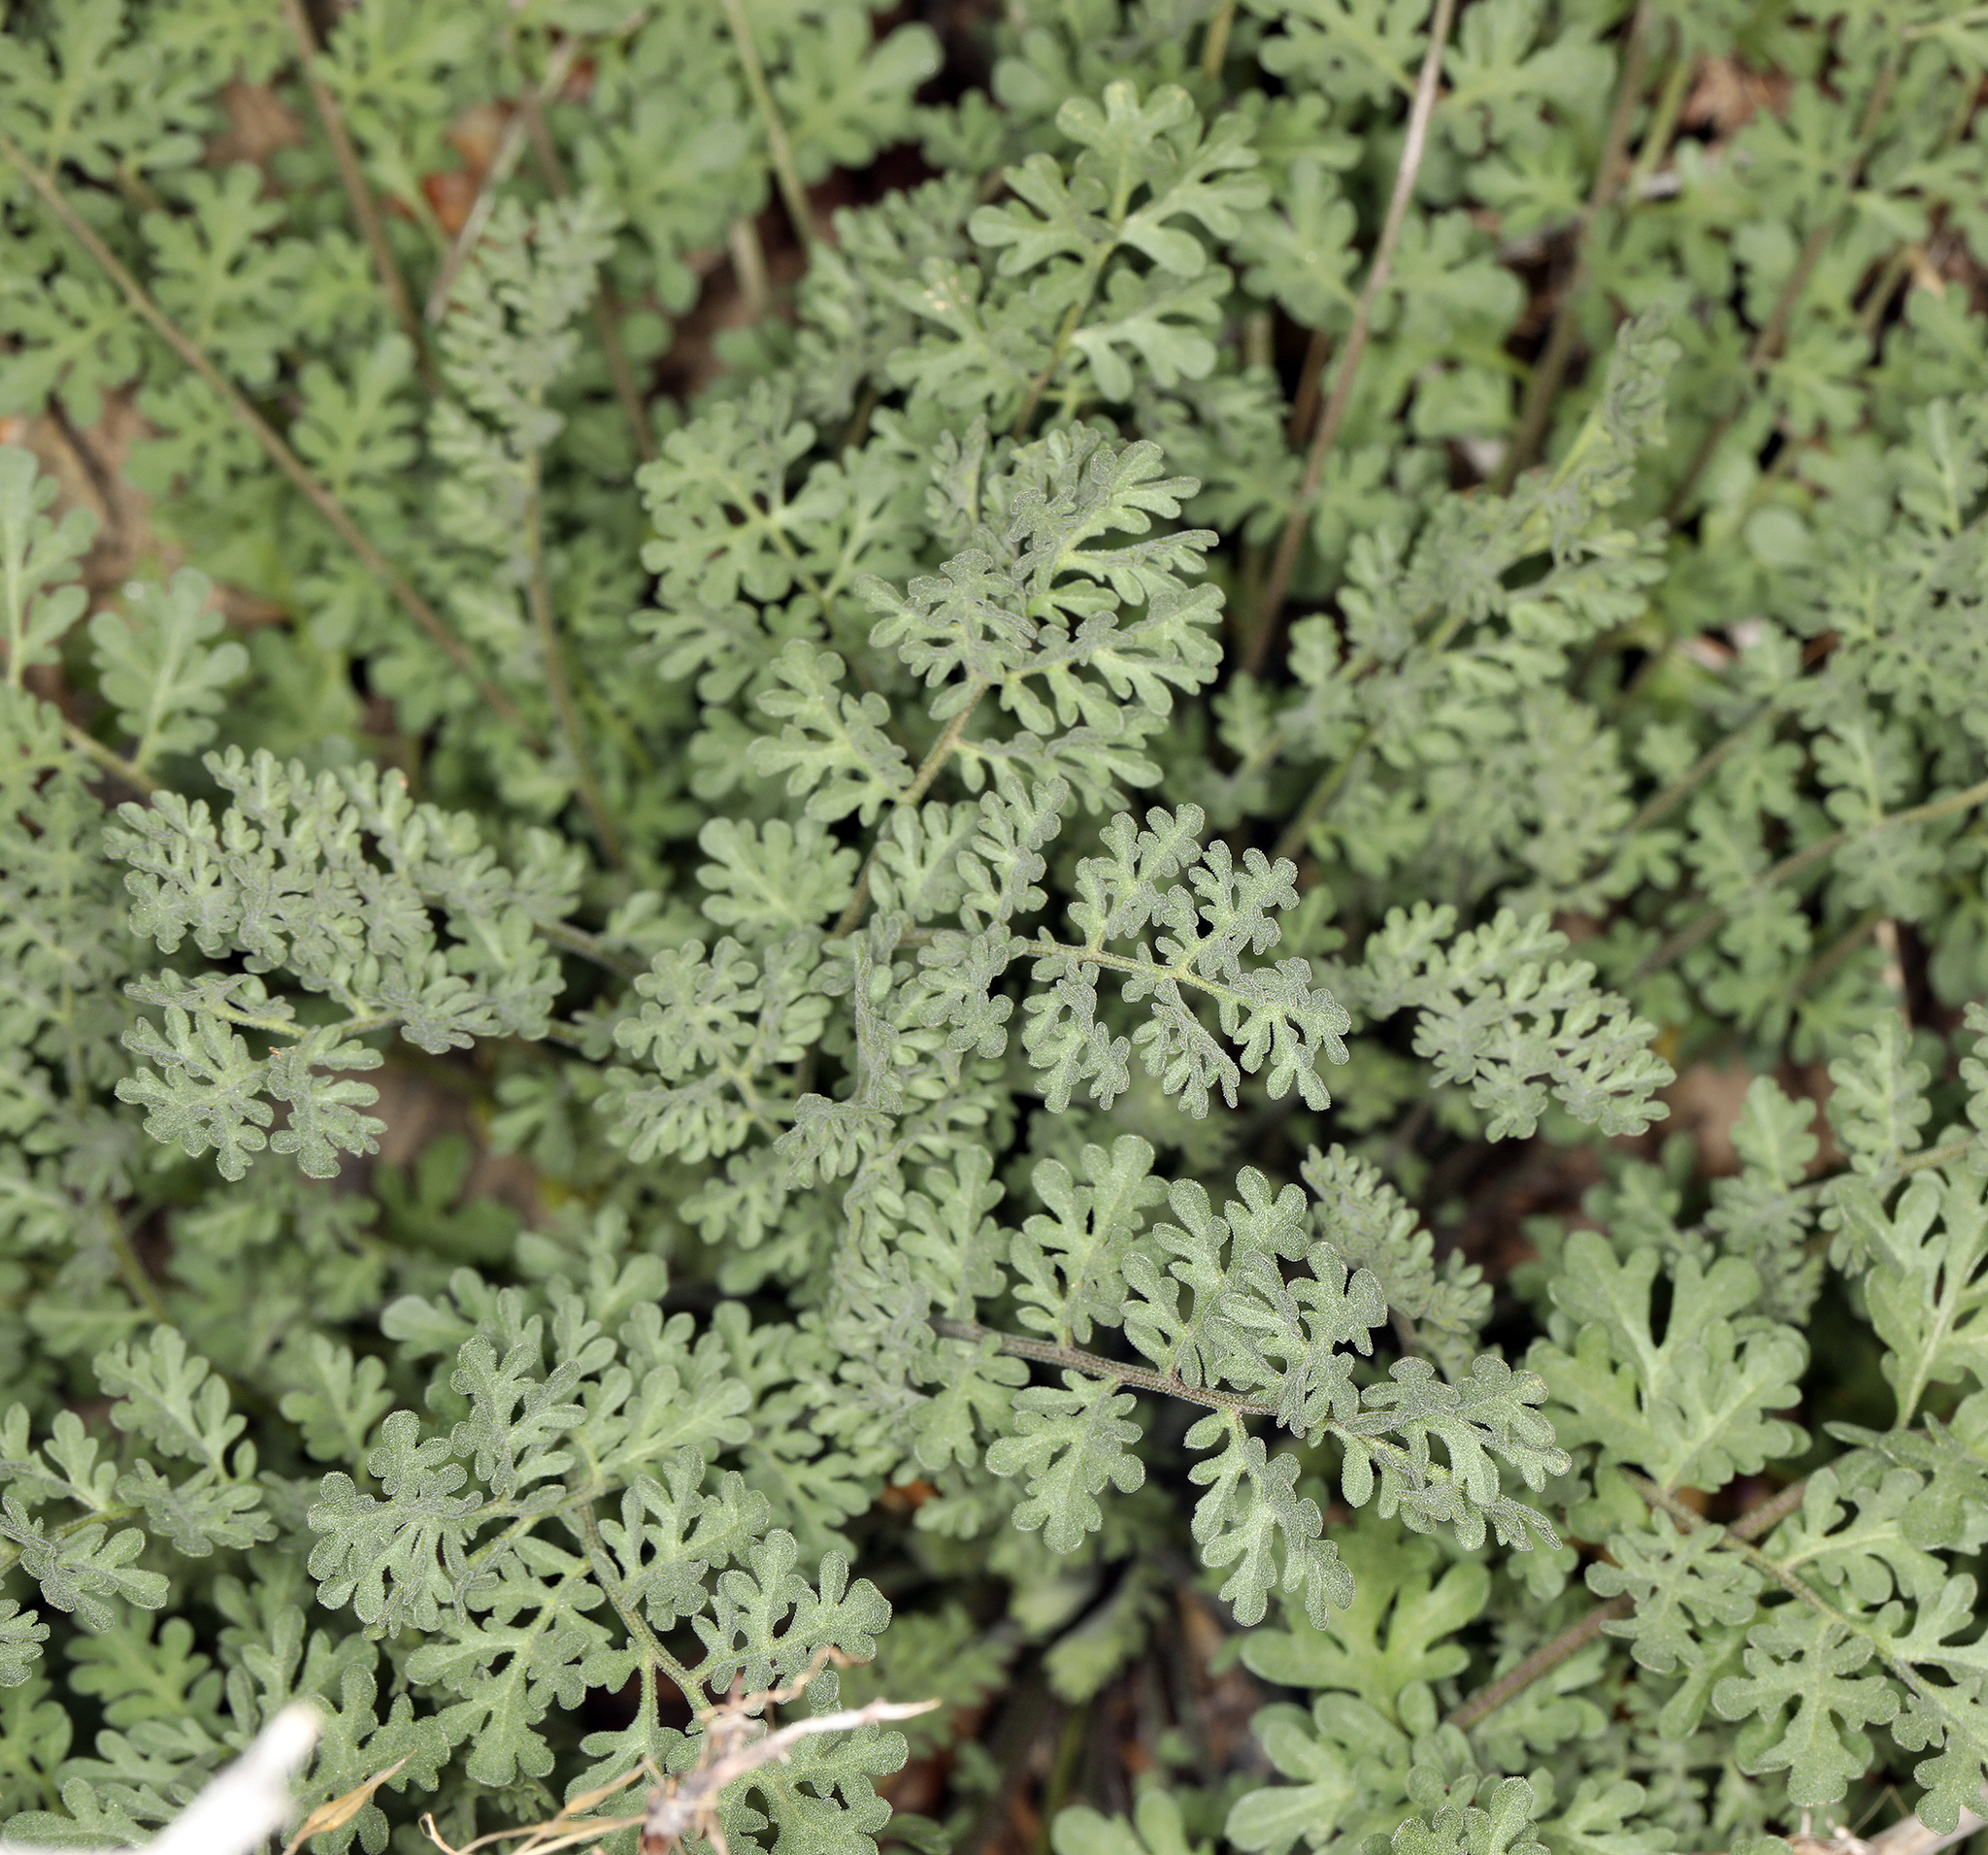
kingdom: Plantae
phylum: Tracheophyta
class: Magnoliopsida
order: Brassicales
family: Brassicaceae
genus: Descurainia
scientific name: Descurainia pinnata
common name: Western tansy mustard
